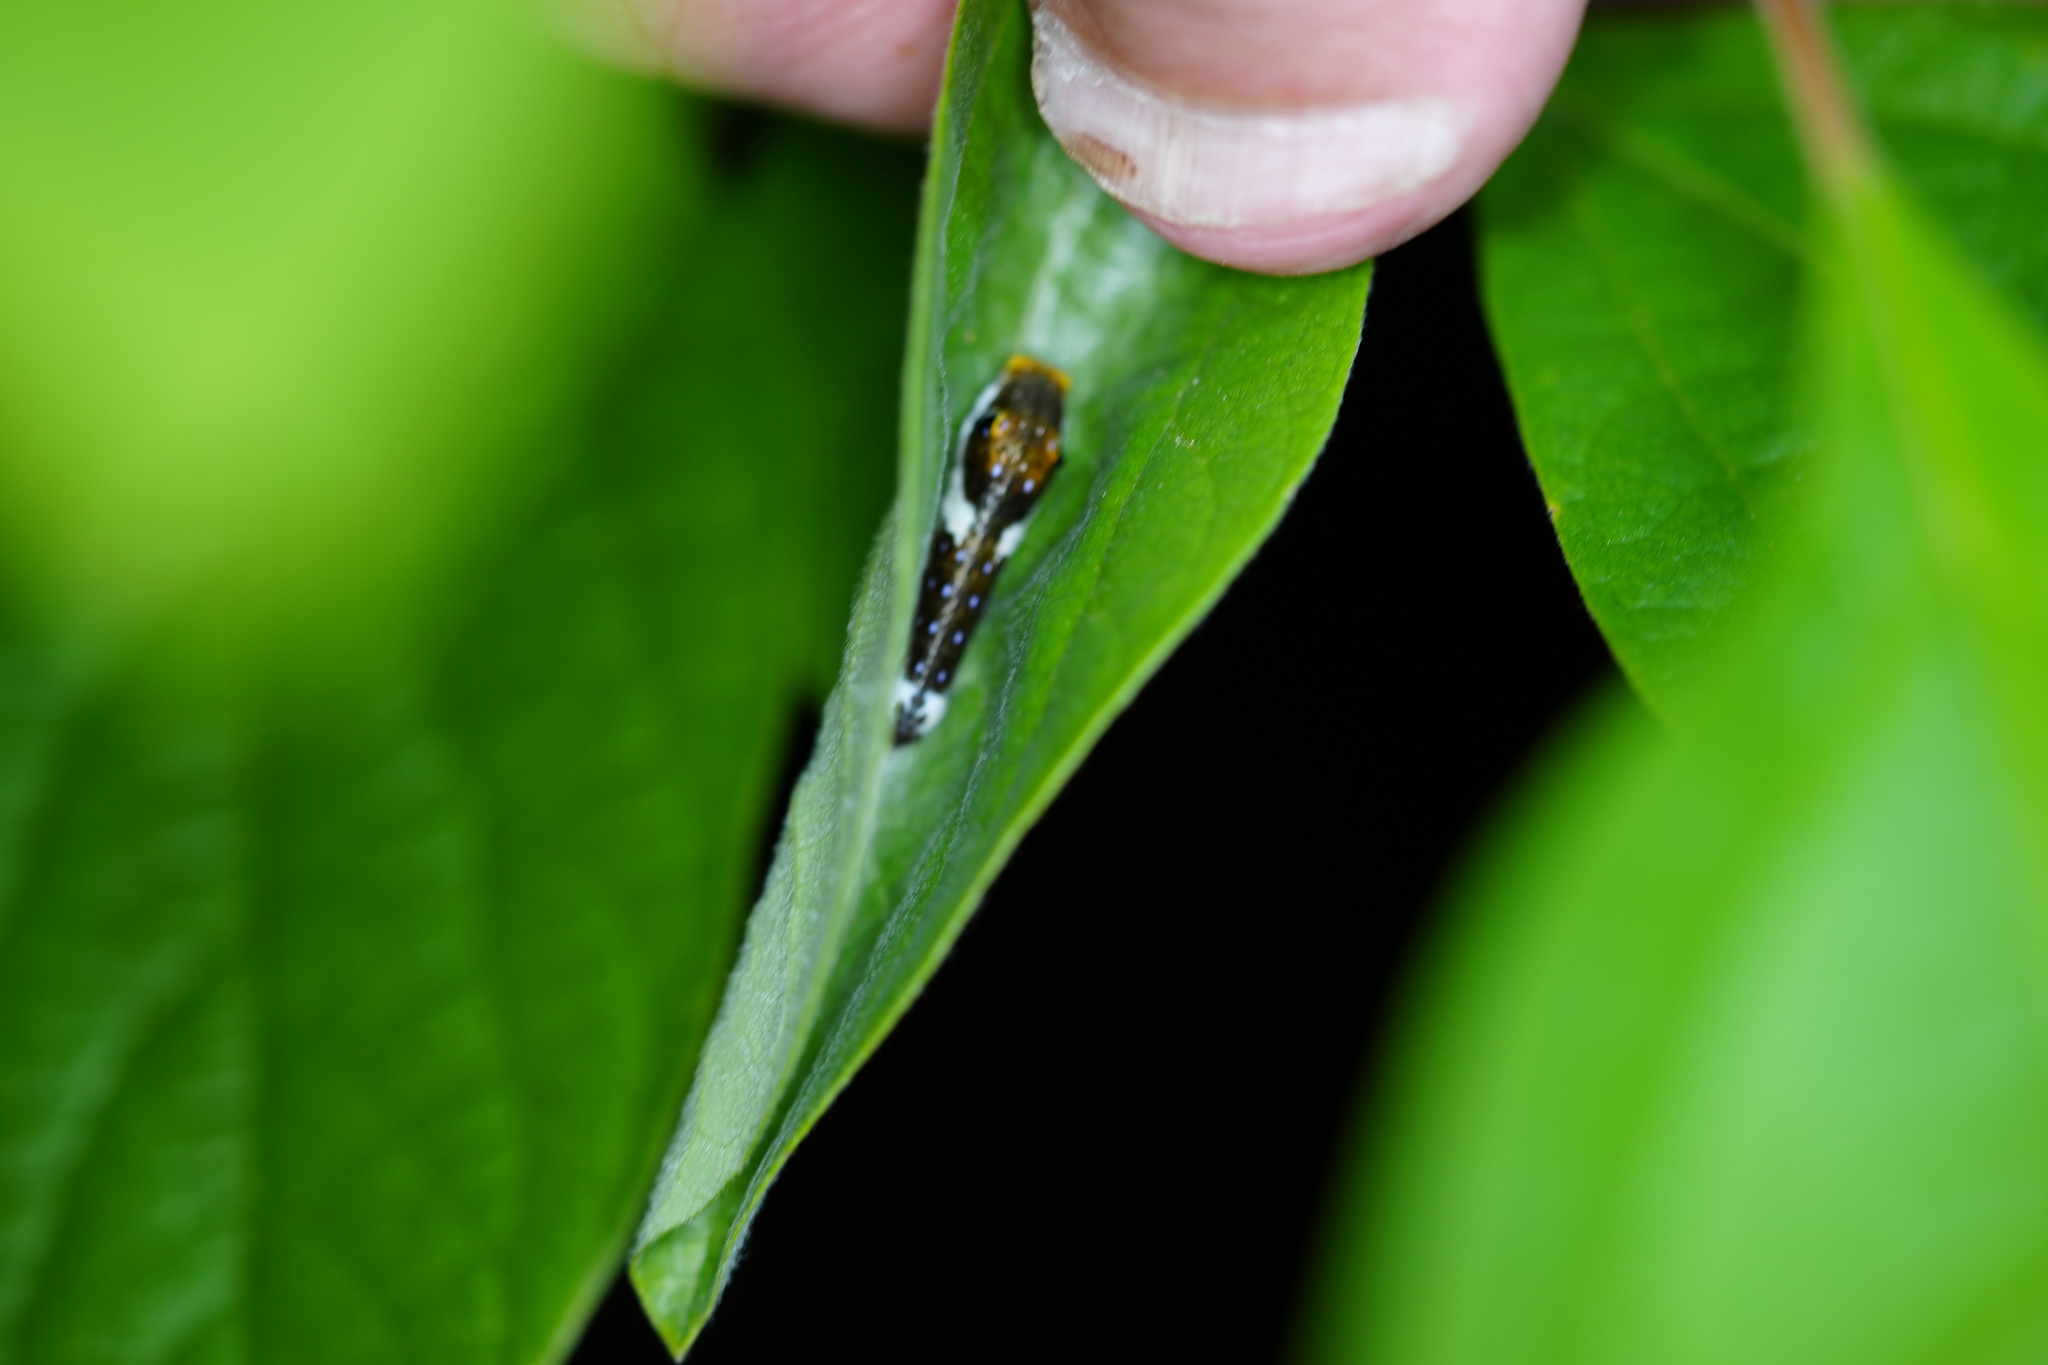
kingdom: Animalia
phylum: Arthropoda
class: Insecta
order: Lepidoptera
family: Papilionidae
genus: Papilio
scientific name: Papilio troilus
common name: Spicebush swallowtail
